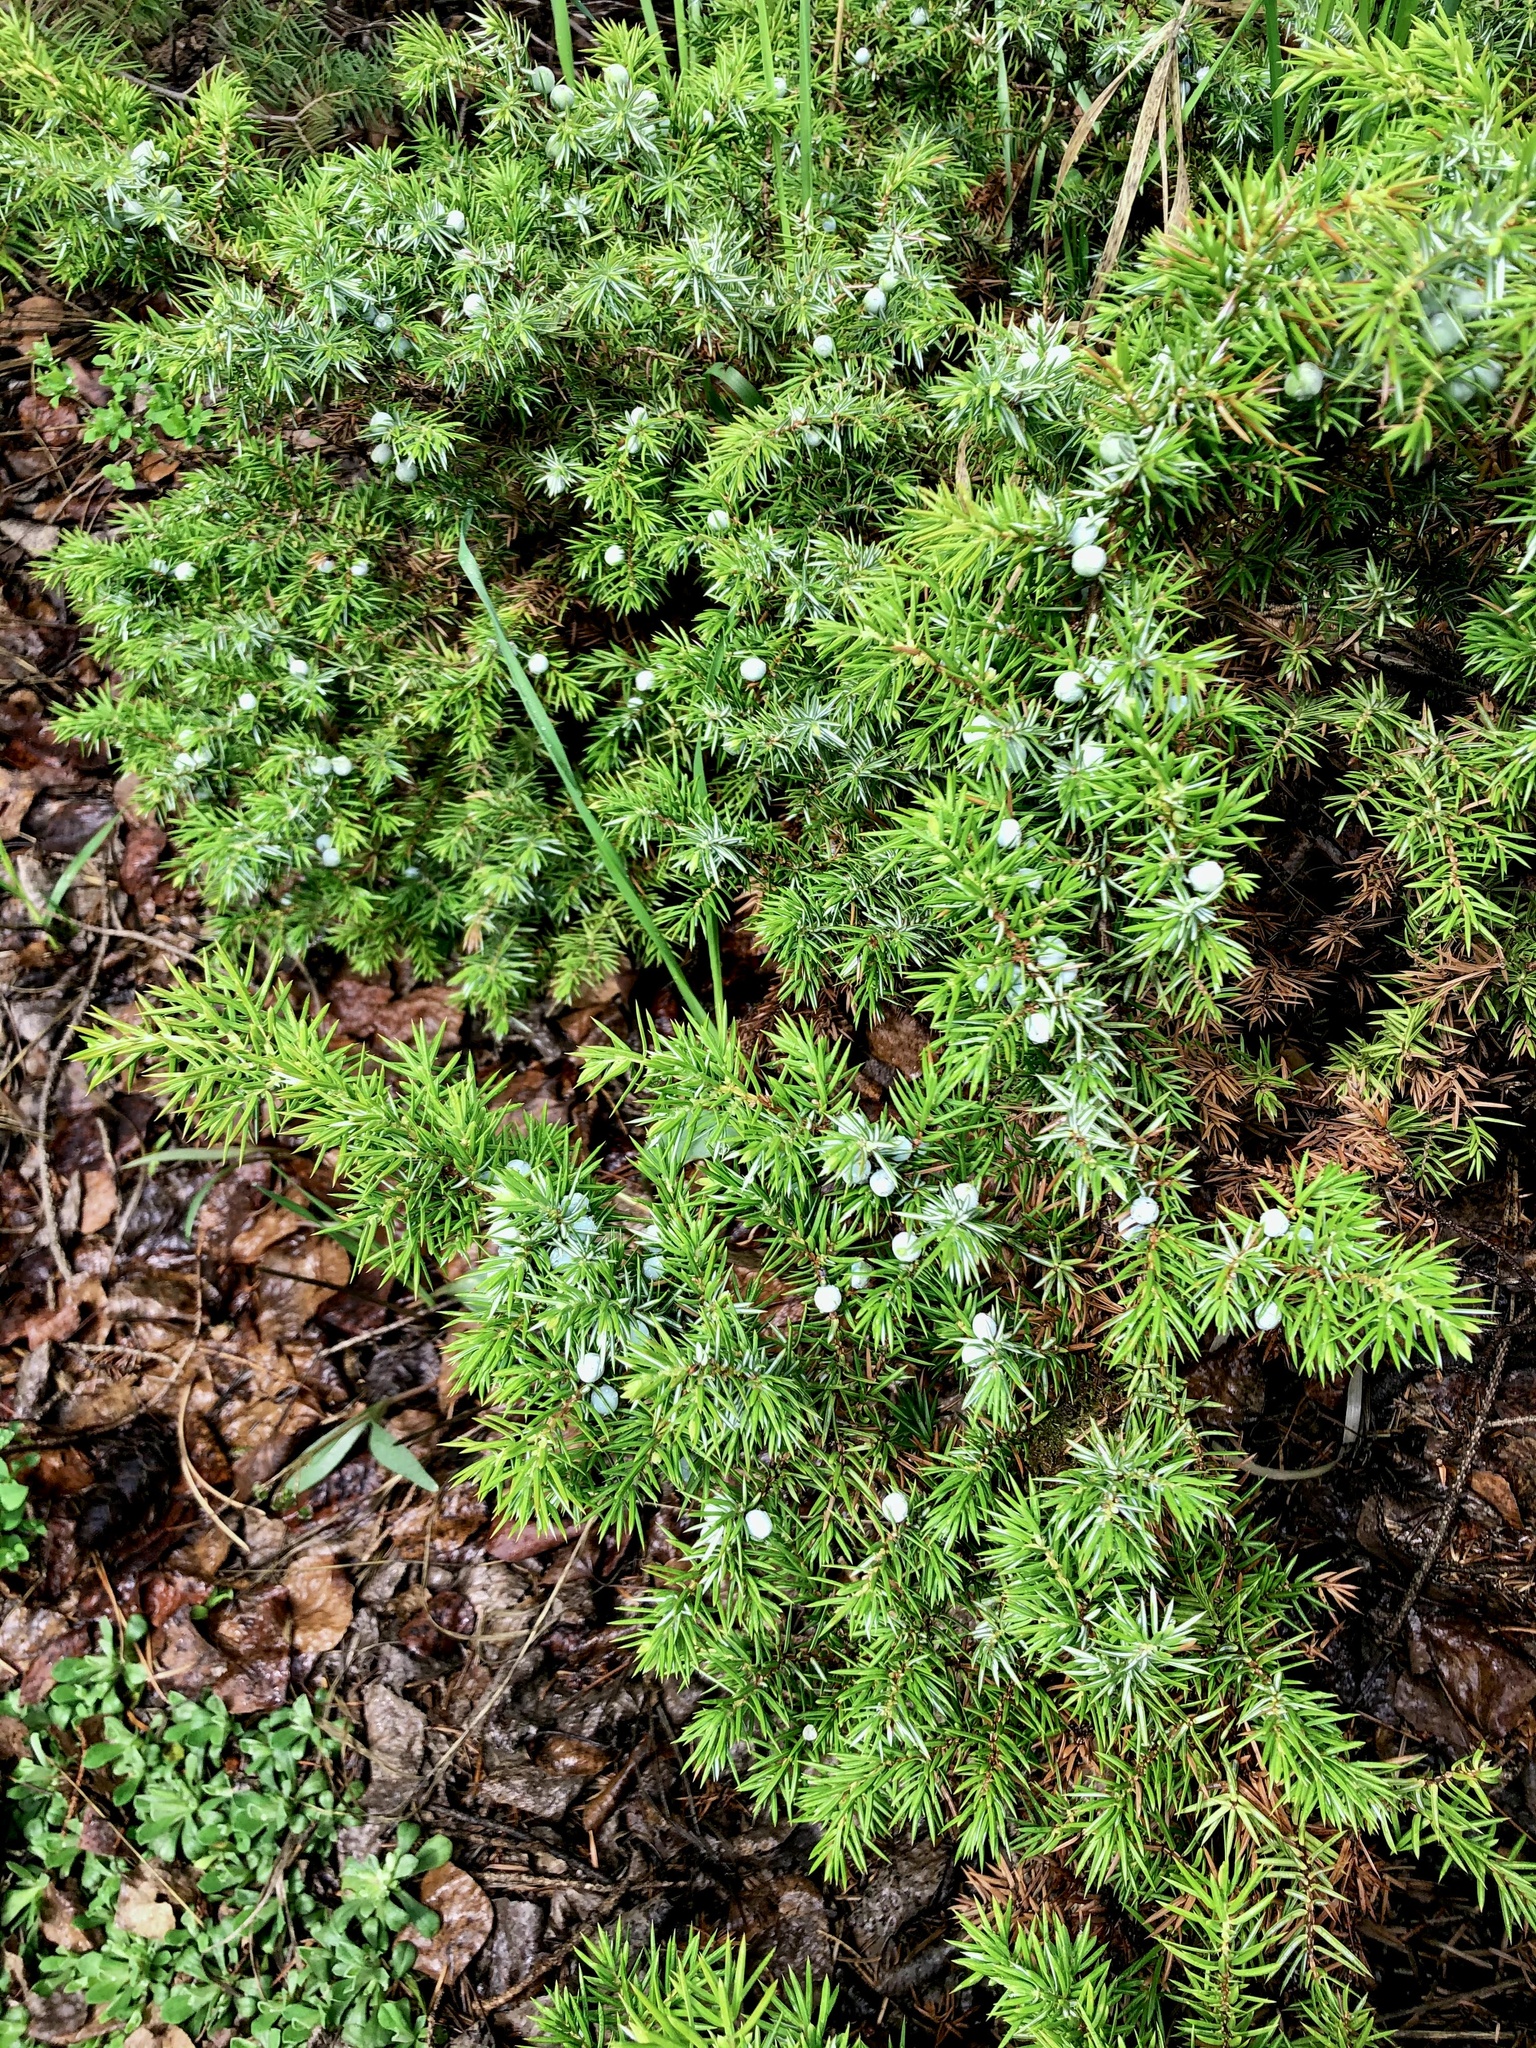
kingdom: Plantae
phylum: Tracheophyta
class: Pinopsida
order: Pinales
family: Cupressaceae
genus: Juniperus
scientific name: Juniperus communis
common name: Common juniper
